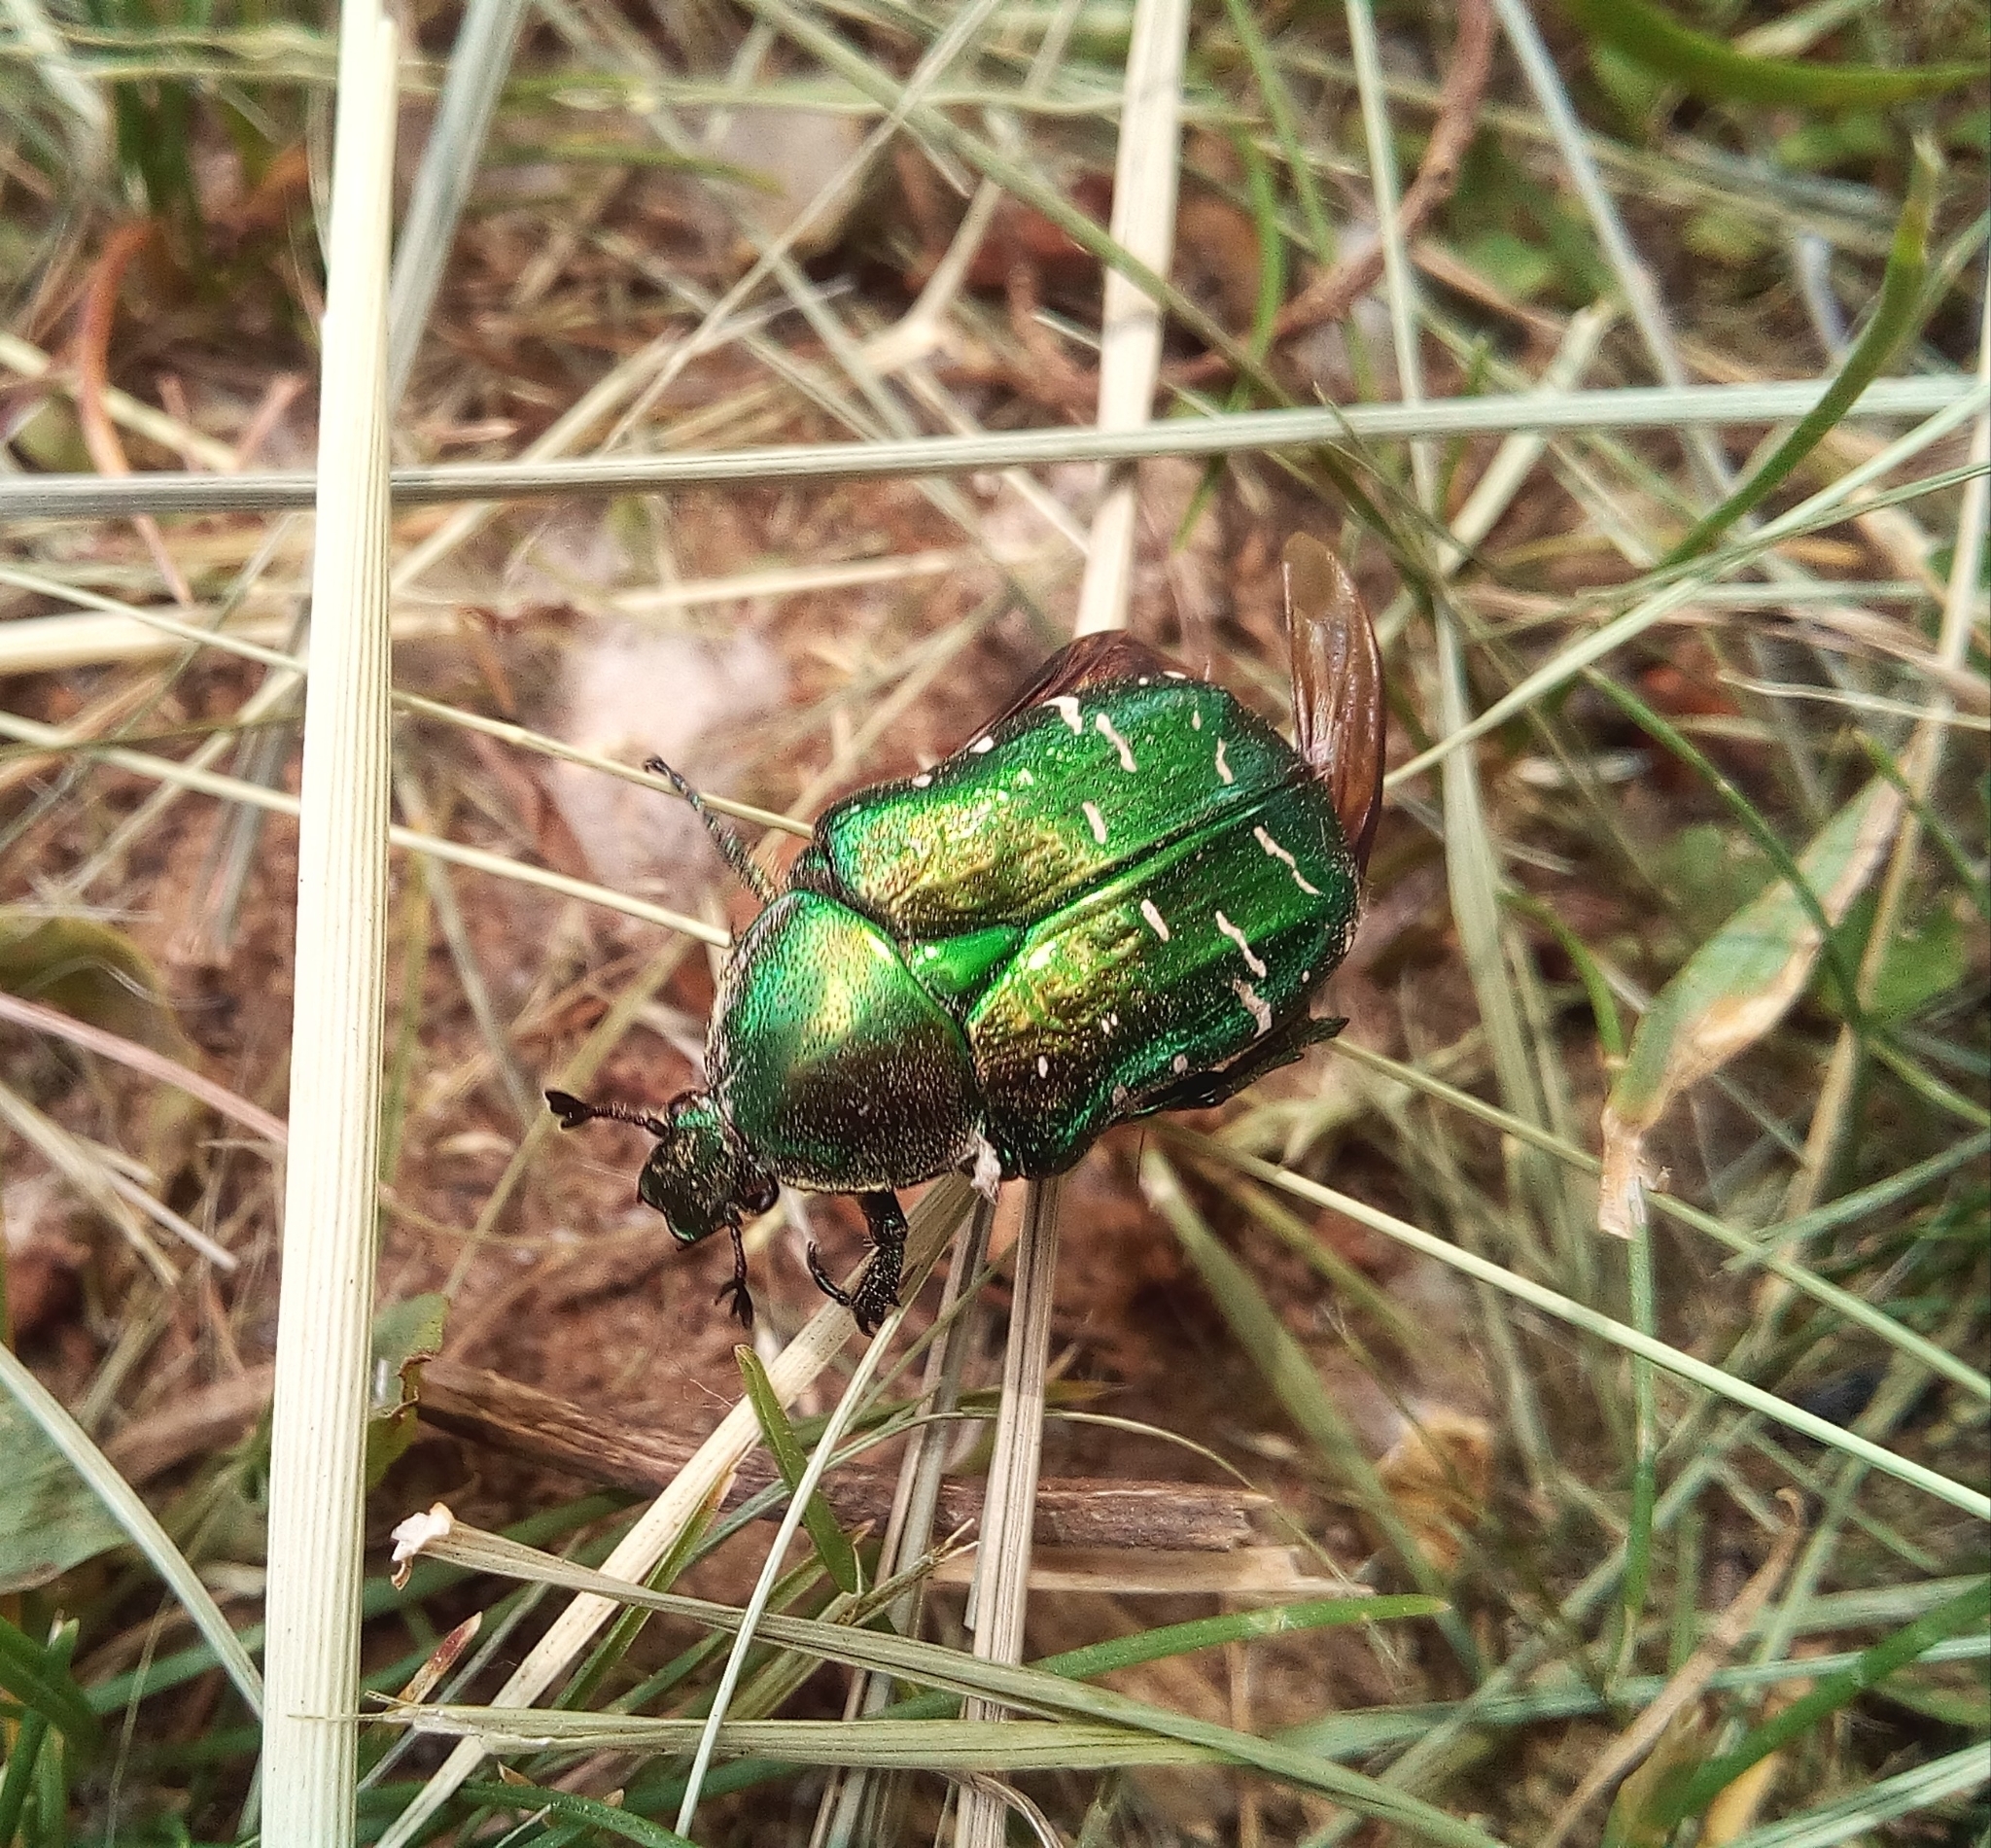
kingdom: Animalia
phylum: Arthropoda
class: Insecta
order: Coleoptera
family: Scarabaeidae
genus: Cetonia
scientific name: Cetonia aurata
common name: Rose chafer
